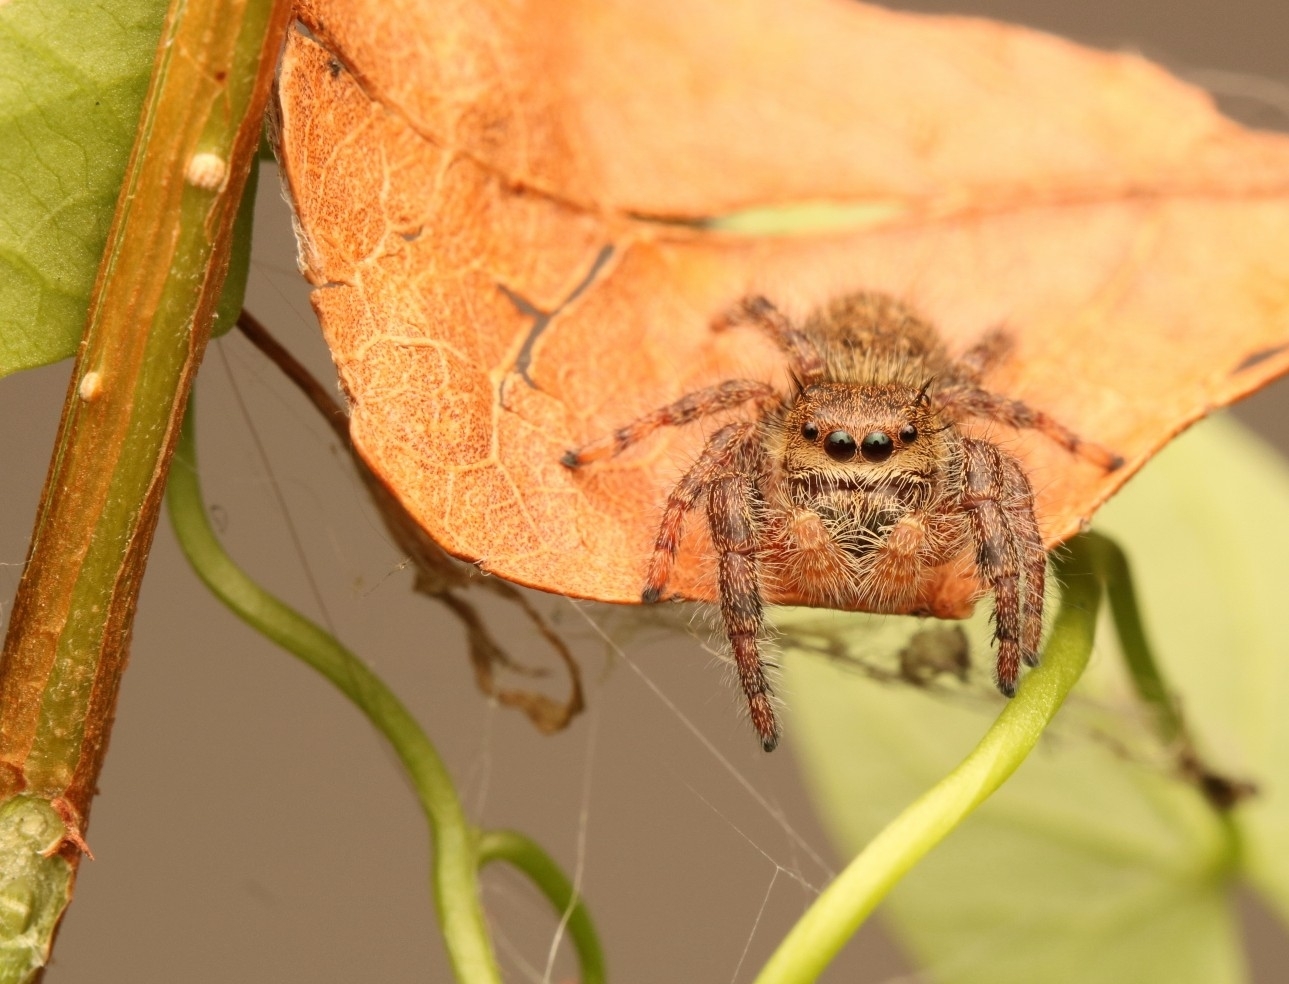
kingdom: Animalia
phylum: Arthropoda
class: Arachnida
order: Araneae
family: Salticidae
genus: Phidippus
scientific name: Phidippus princeps
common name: Grayish jumping spider
